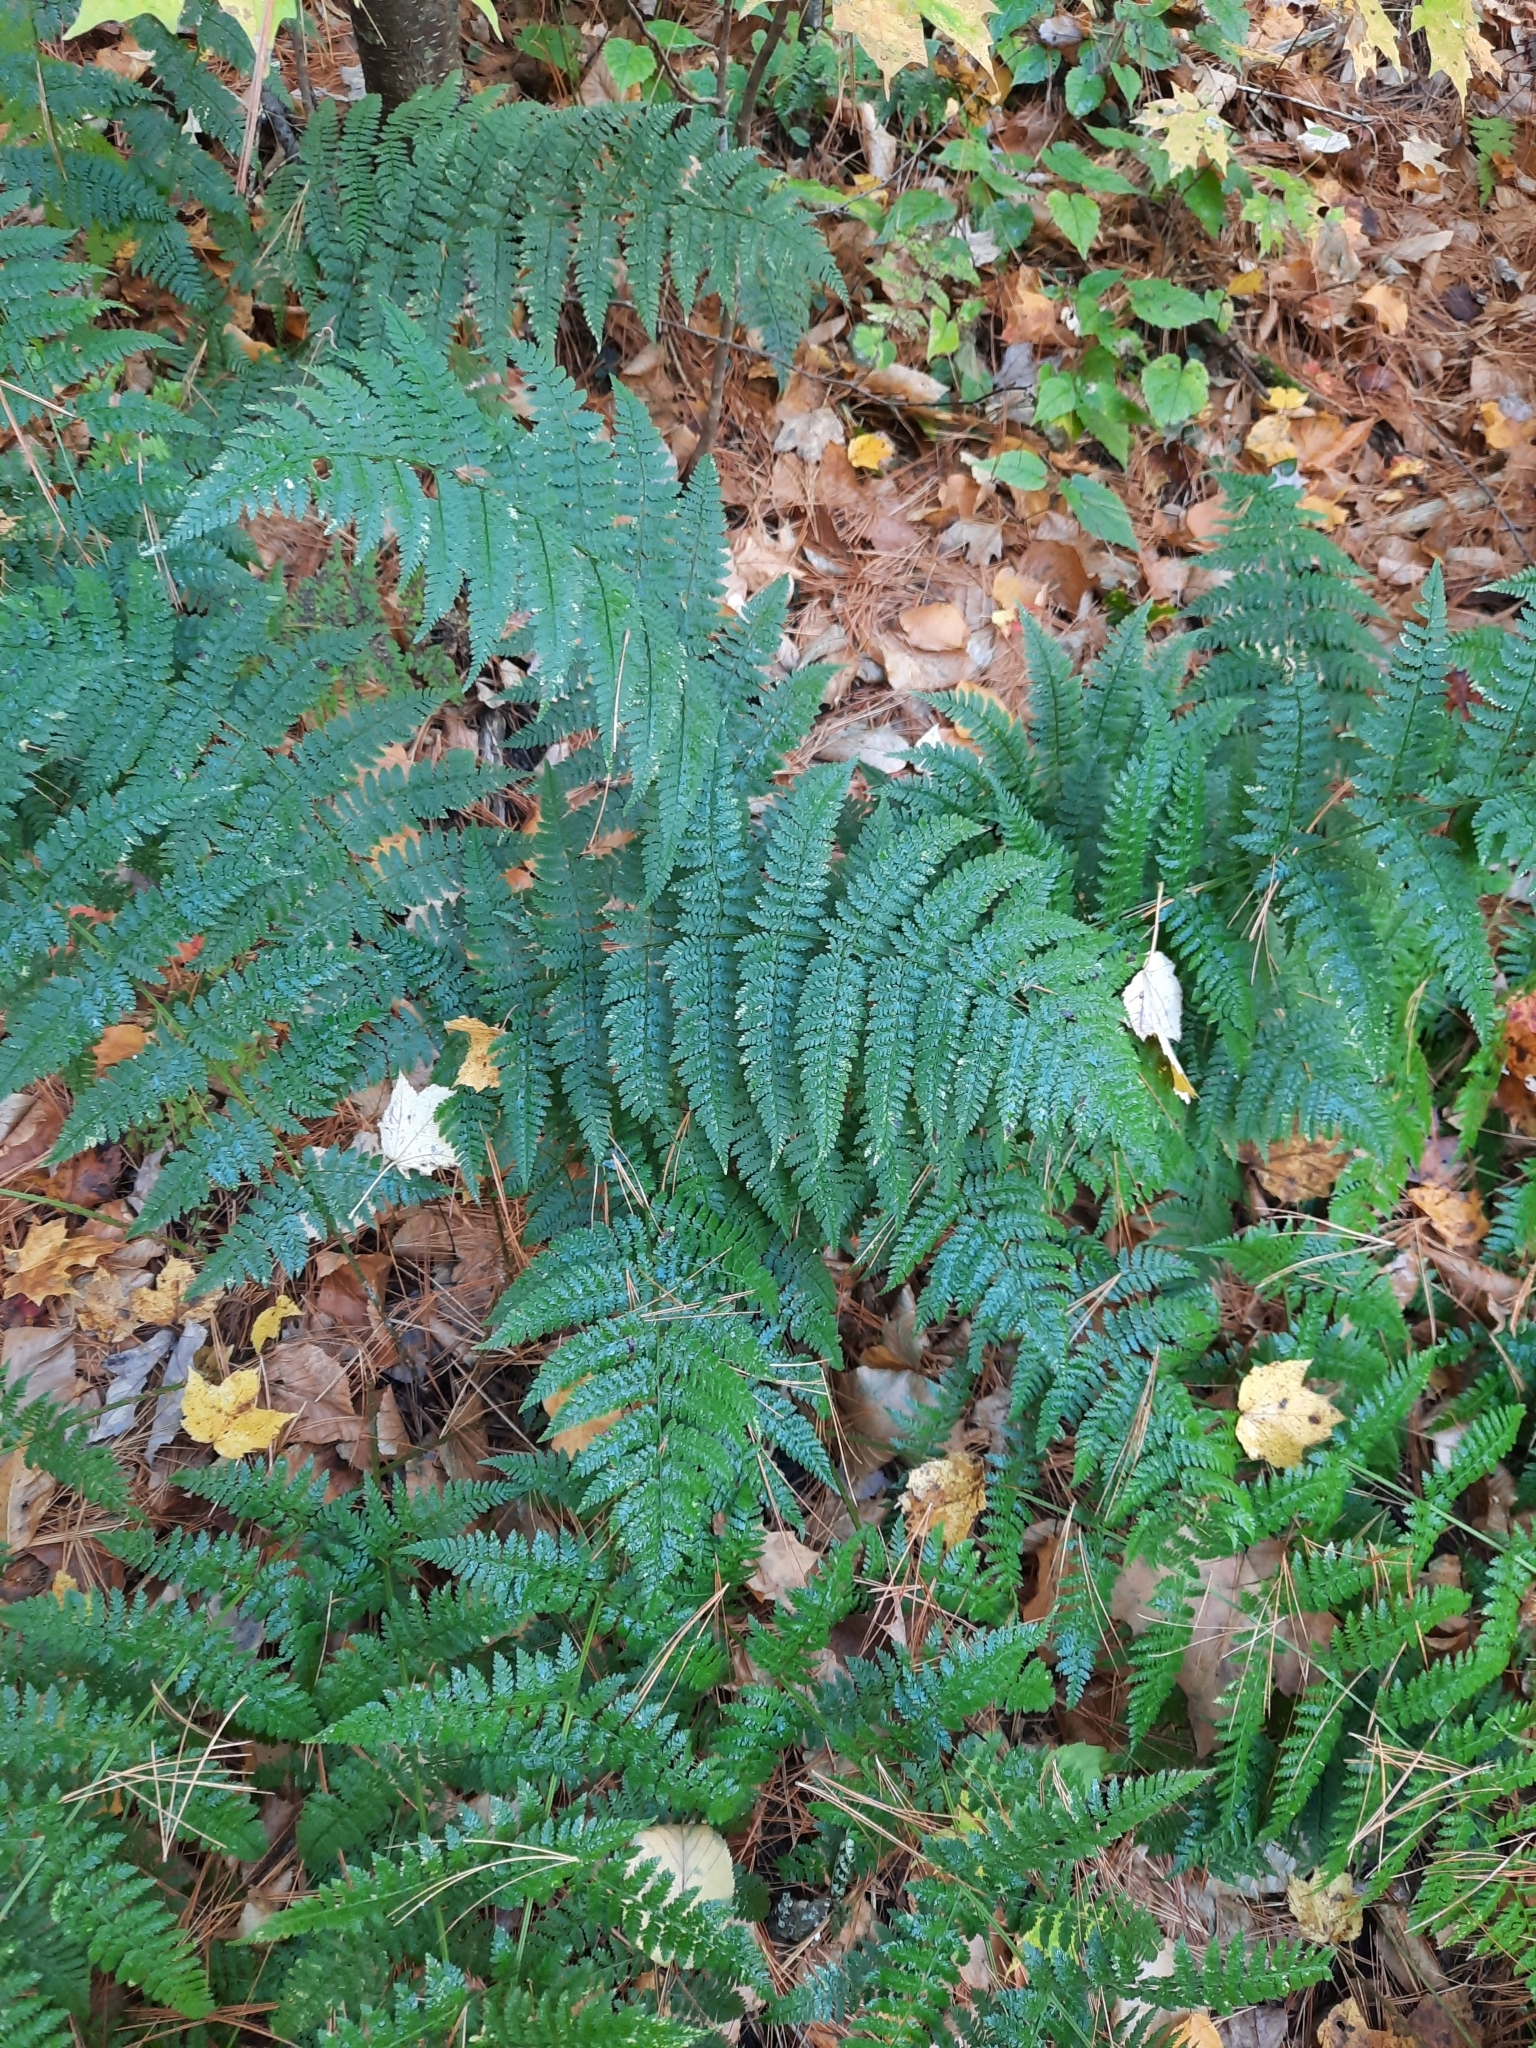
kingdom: Plantae
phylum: Tracheophyta
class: Polypodiopsida
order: Polypodiales
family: Dryopteridaceae
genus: Dryopteris
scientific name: Dryopteris intermedia
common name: Evergreen wood fern
